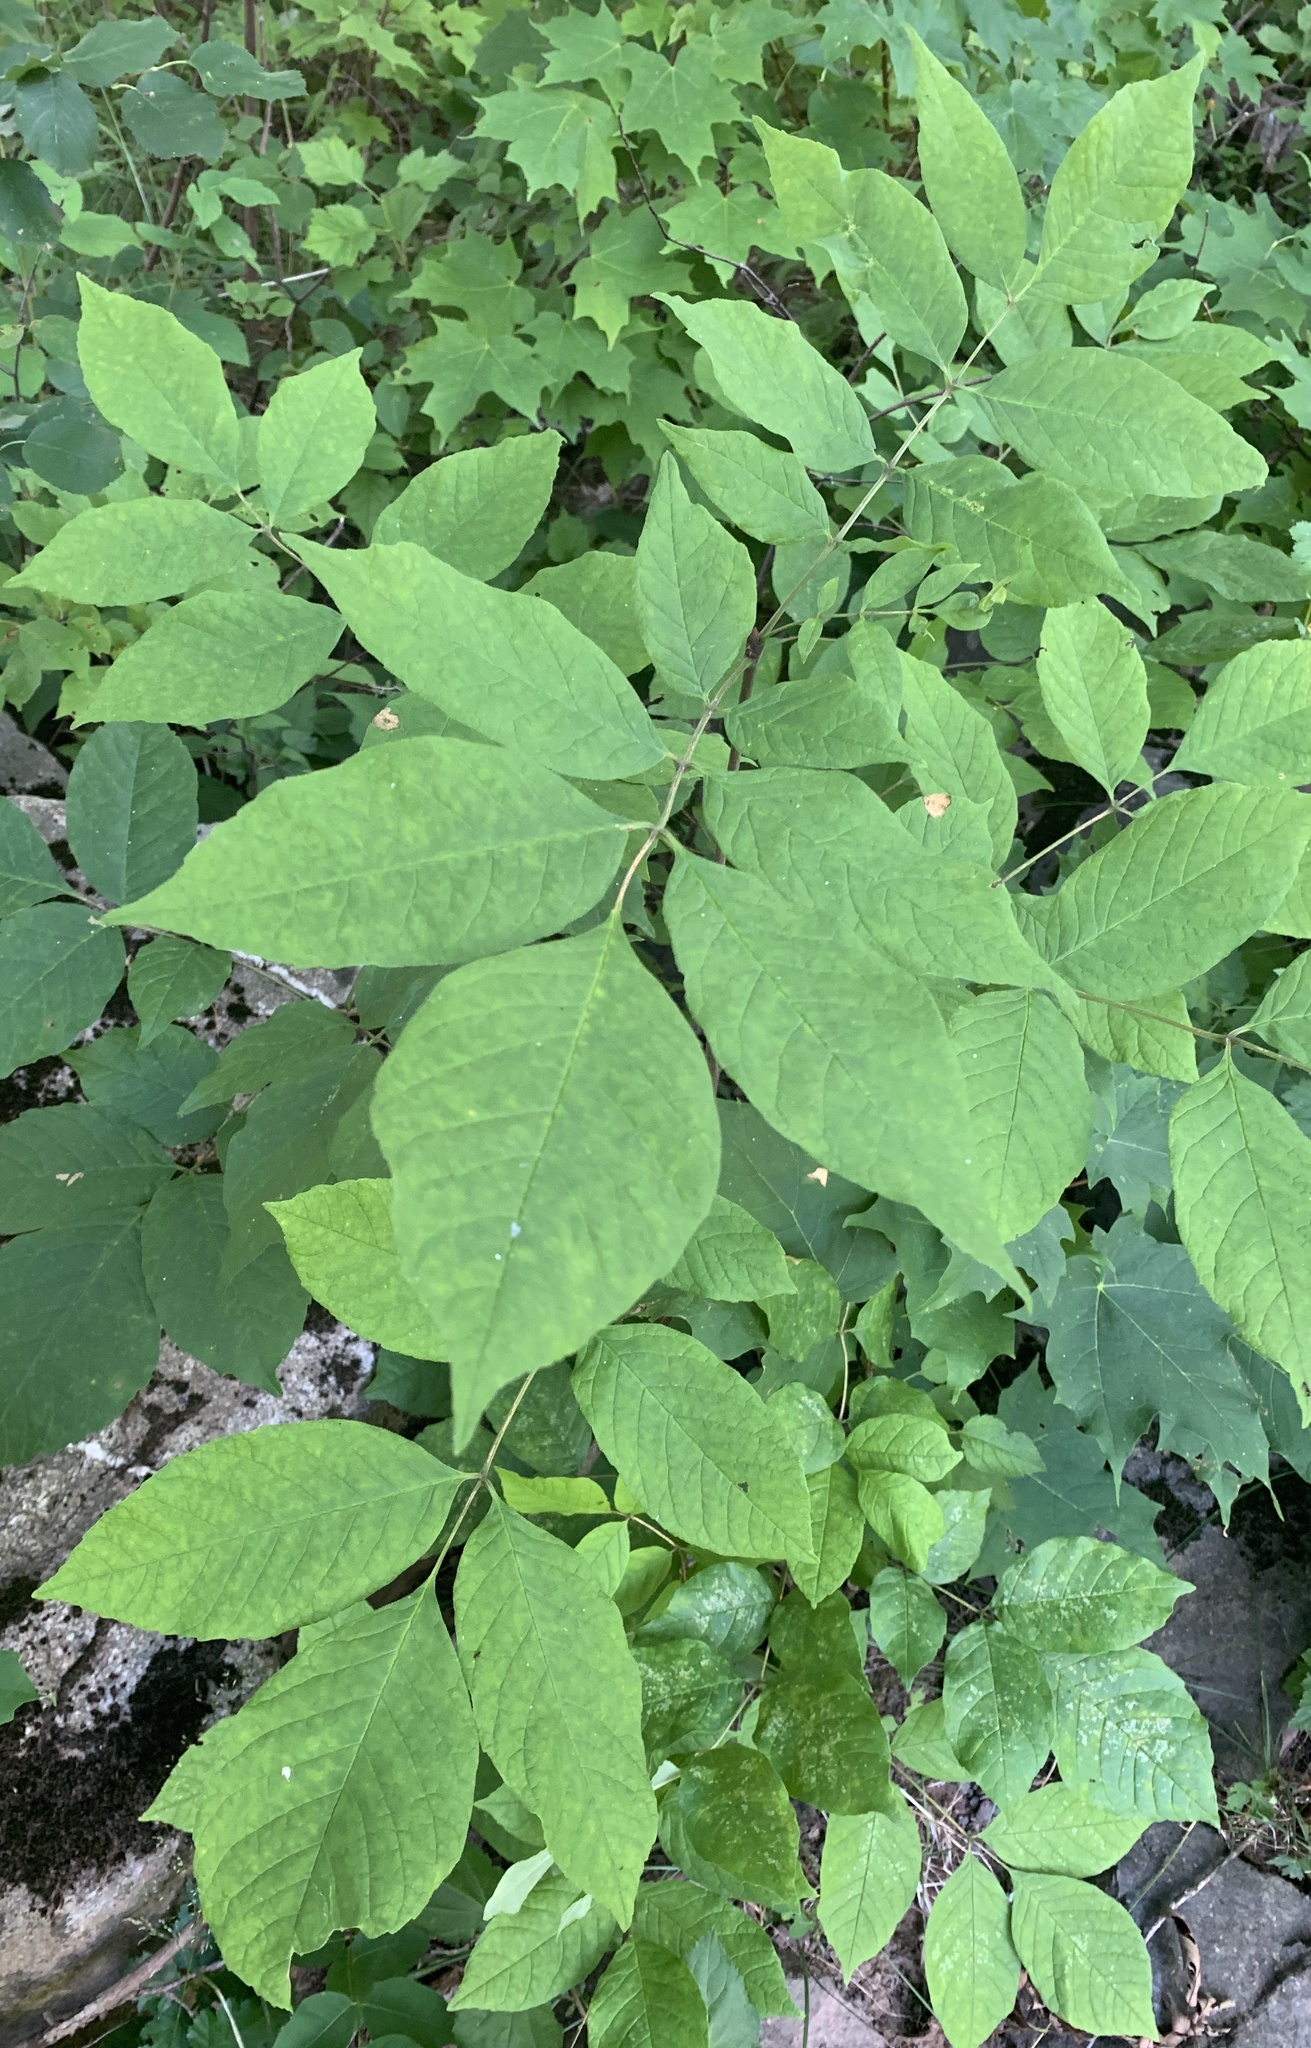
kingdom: Plantae
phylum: Tracheophyta
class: Magnoliopsida
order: Lamiales
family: Oleaceae
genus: Fraxinus
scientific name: Fraxinus americana
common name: White ash
